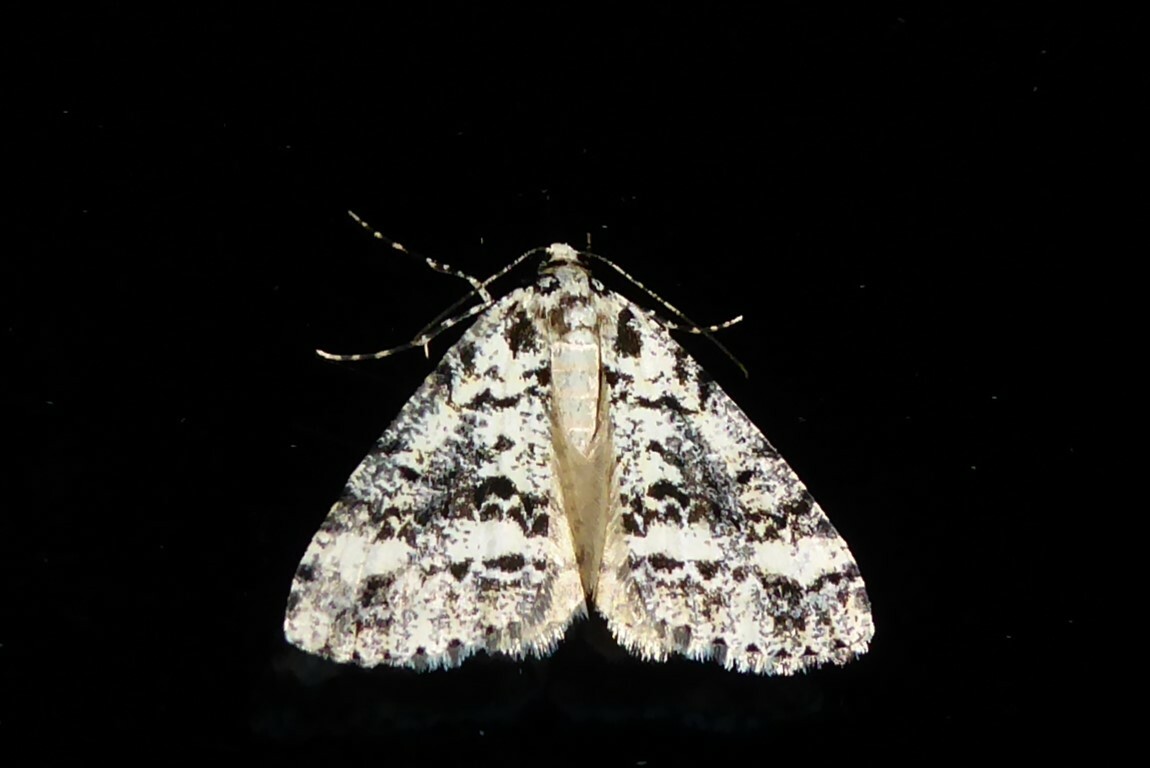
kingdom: Animalia
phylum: Arthropoda
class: Insecta
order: Lepidoptera
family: Geometridae
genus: Pseudocoremia
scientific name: Pseudocoremia leucelaea
